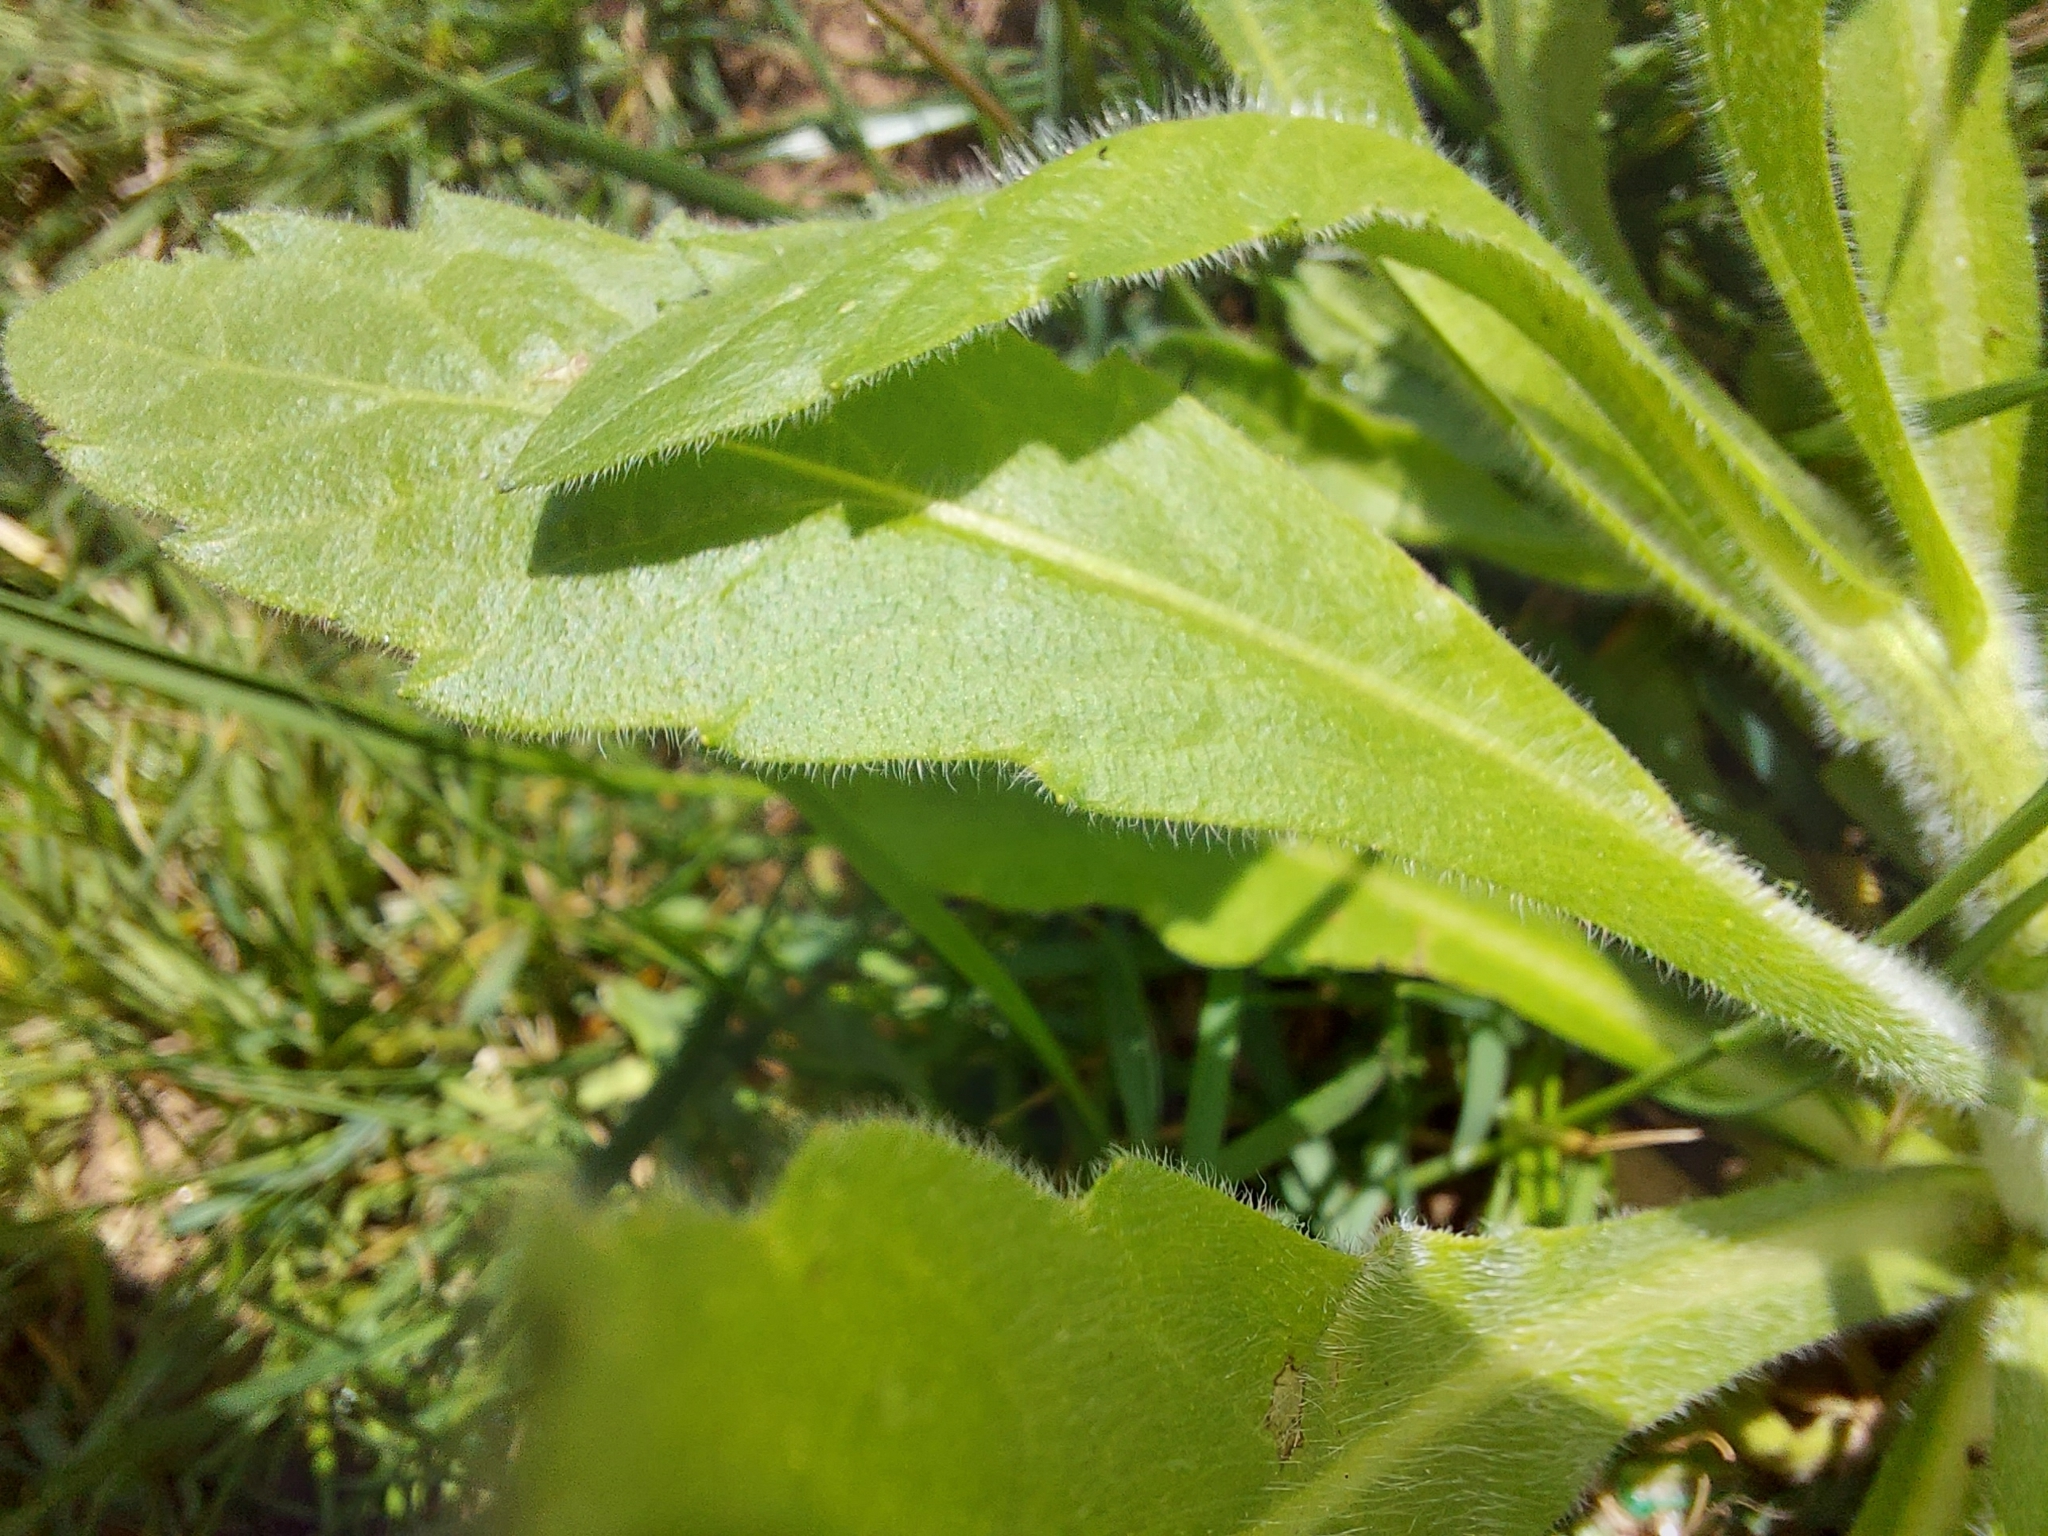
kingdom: Plantae
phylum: Tracheophyta
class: Magnoliopsida
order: Asterales
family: Asteraceae
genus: Erigeron
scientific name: Erigeron canadensis
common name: Canadian fleabane
